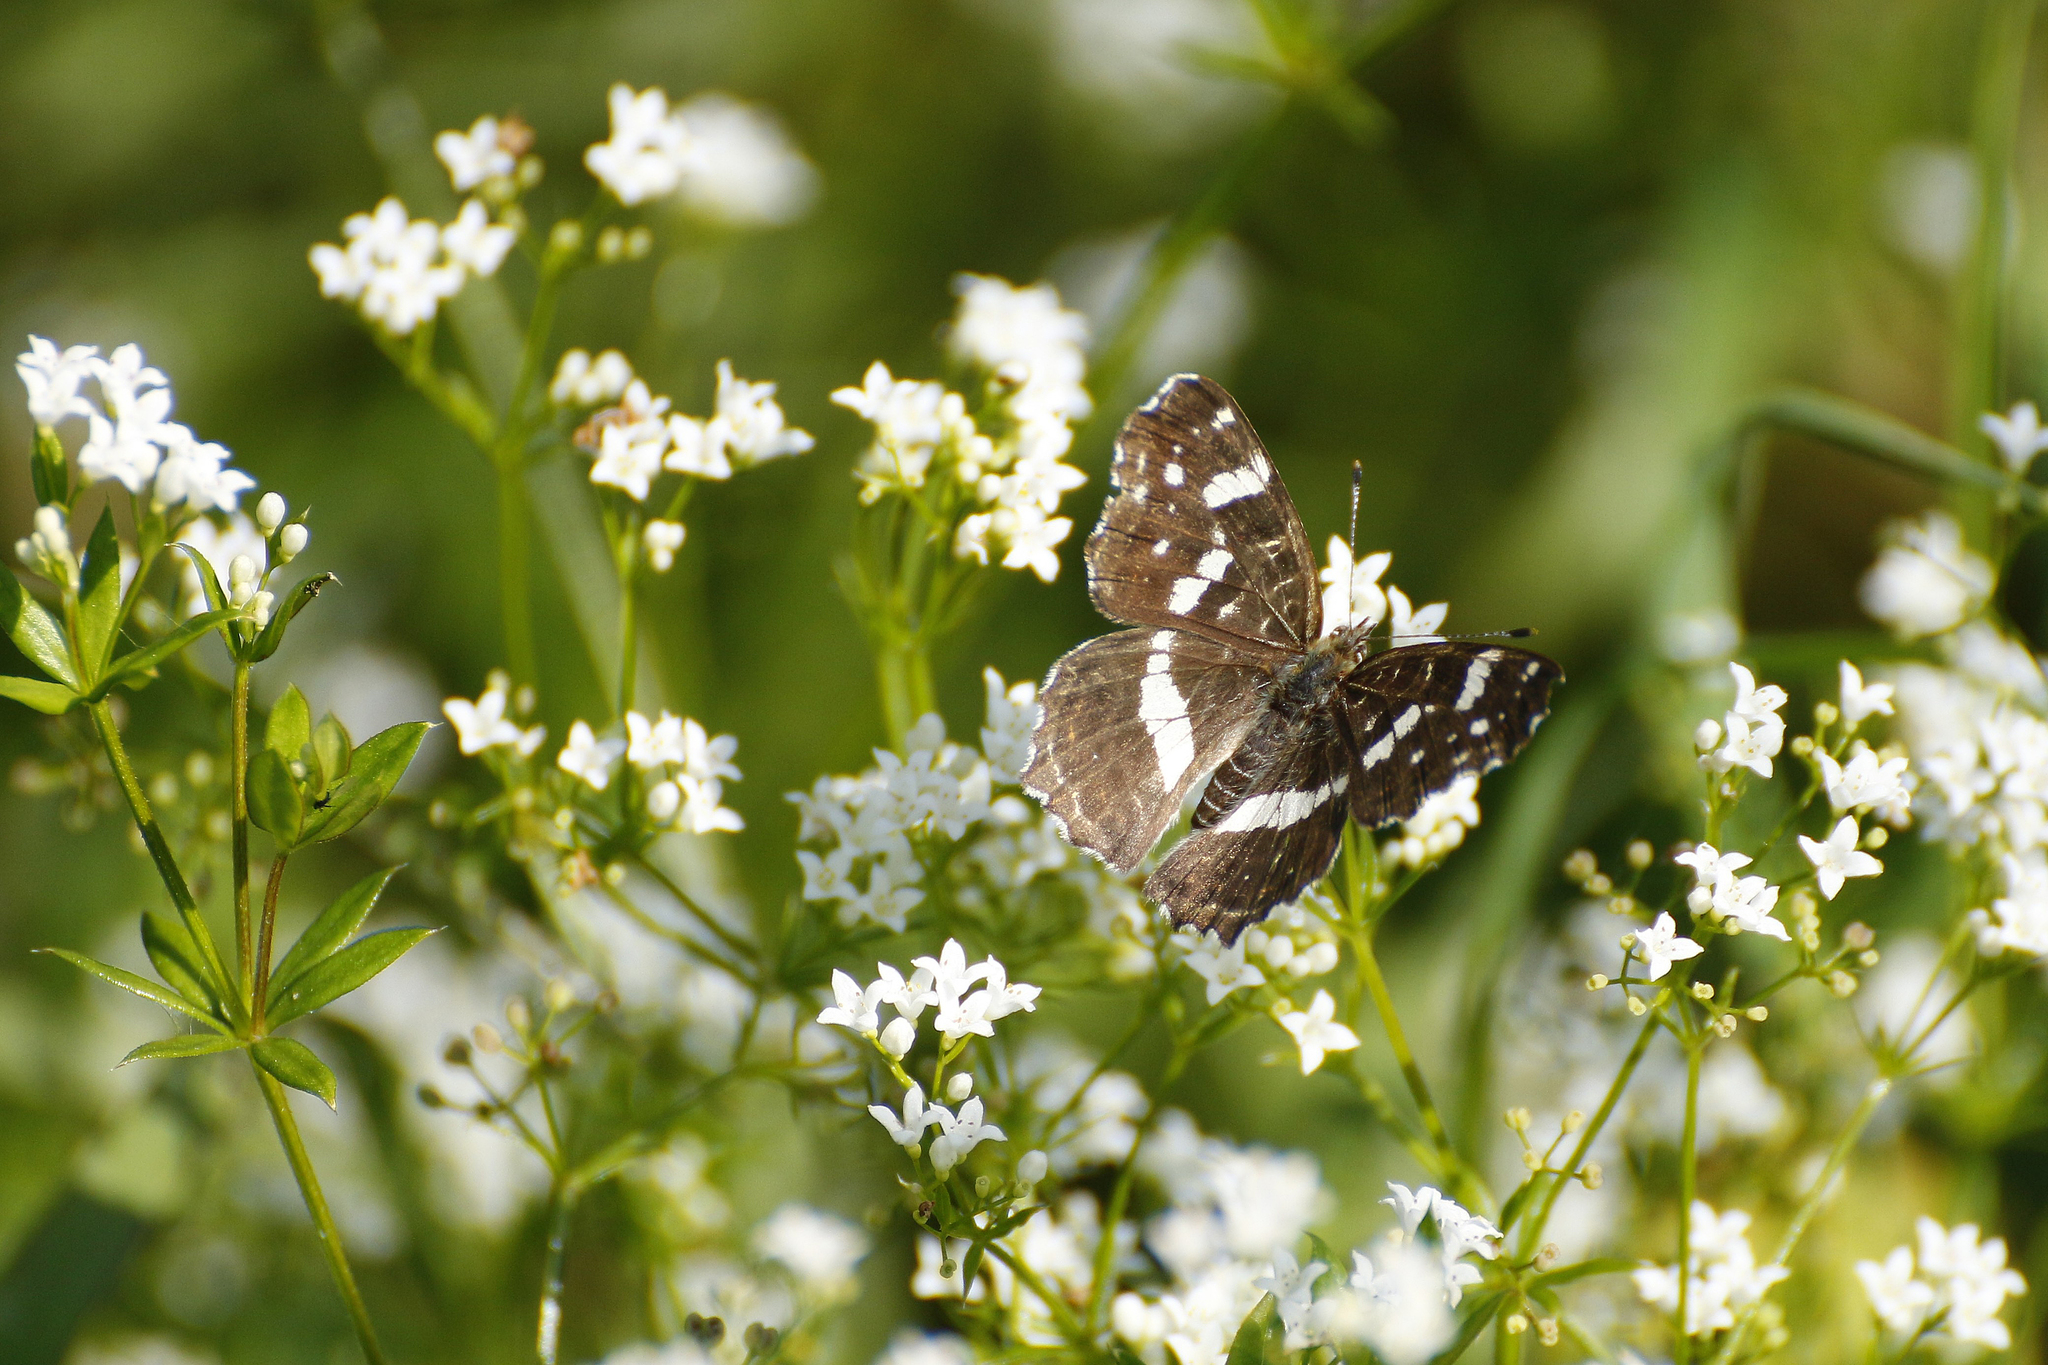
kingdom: Animalia
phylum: Arthropoda
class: Insecta
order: Lepidoptera
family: Nymphalidae
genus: Araschnia
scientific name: Araschnia levana
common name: Map butterfly
